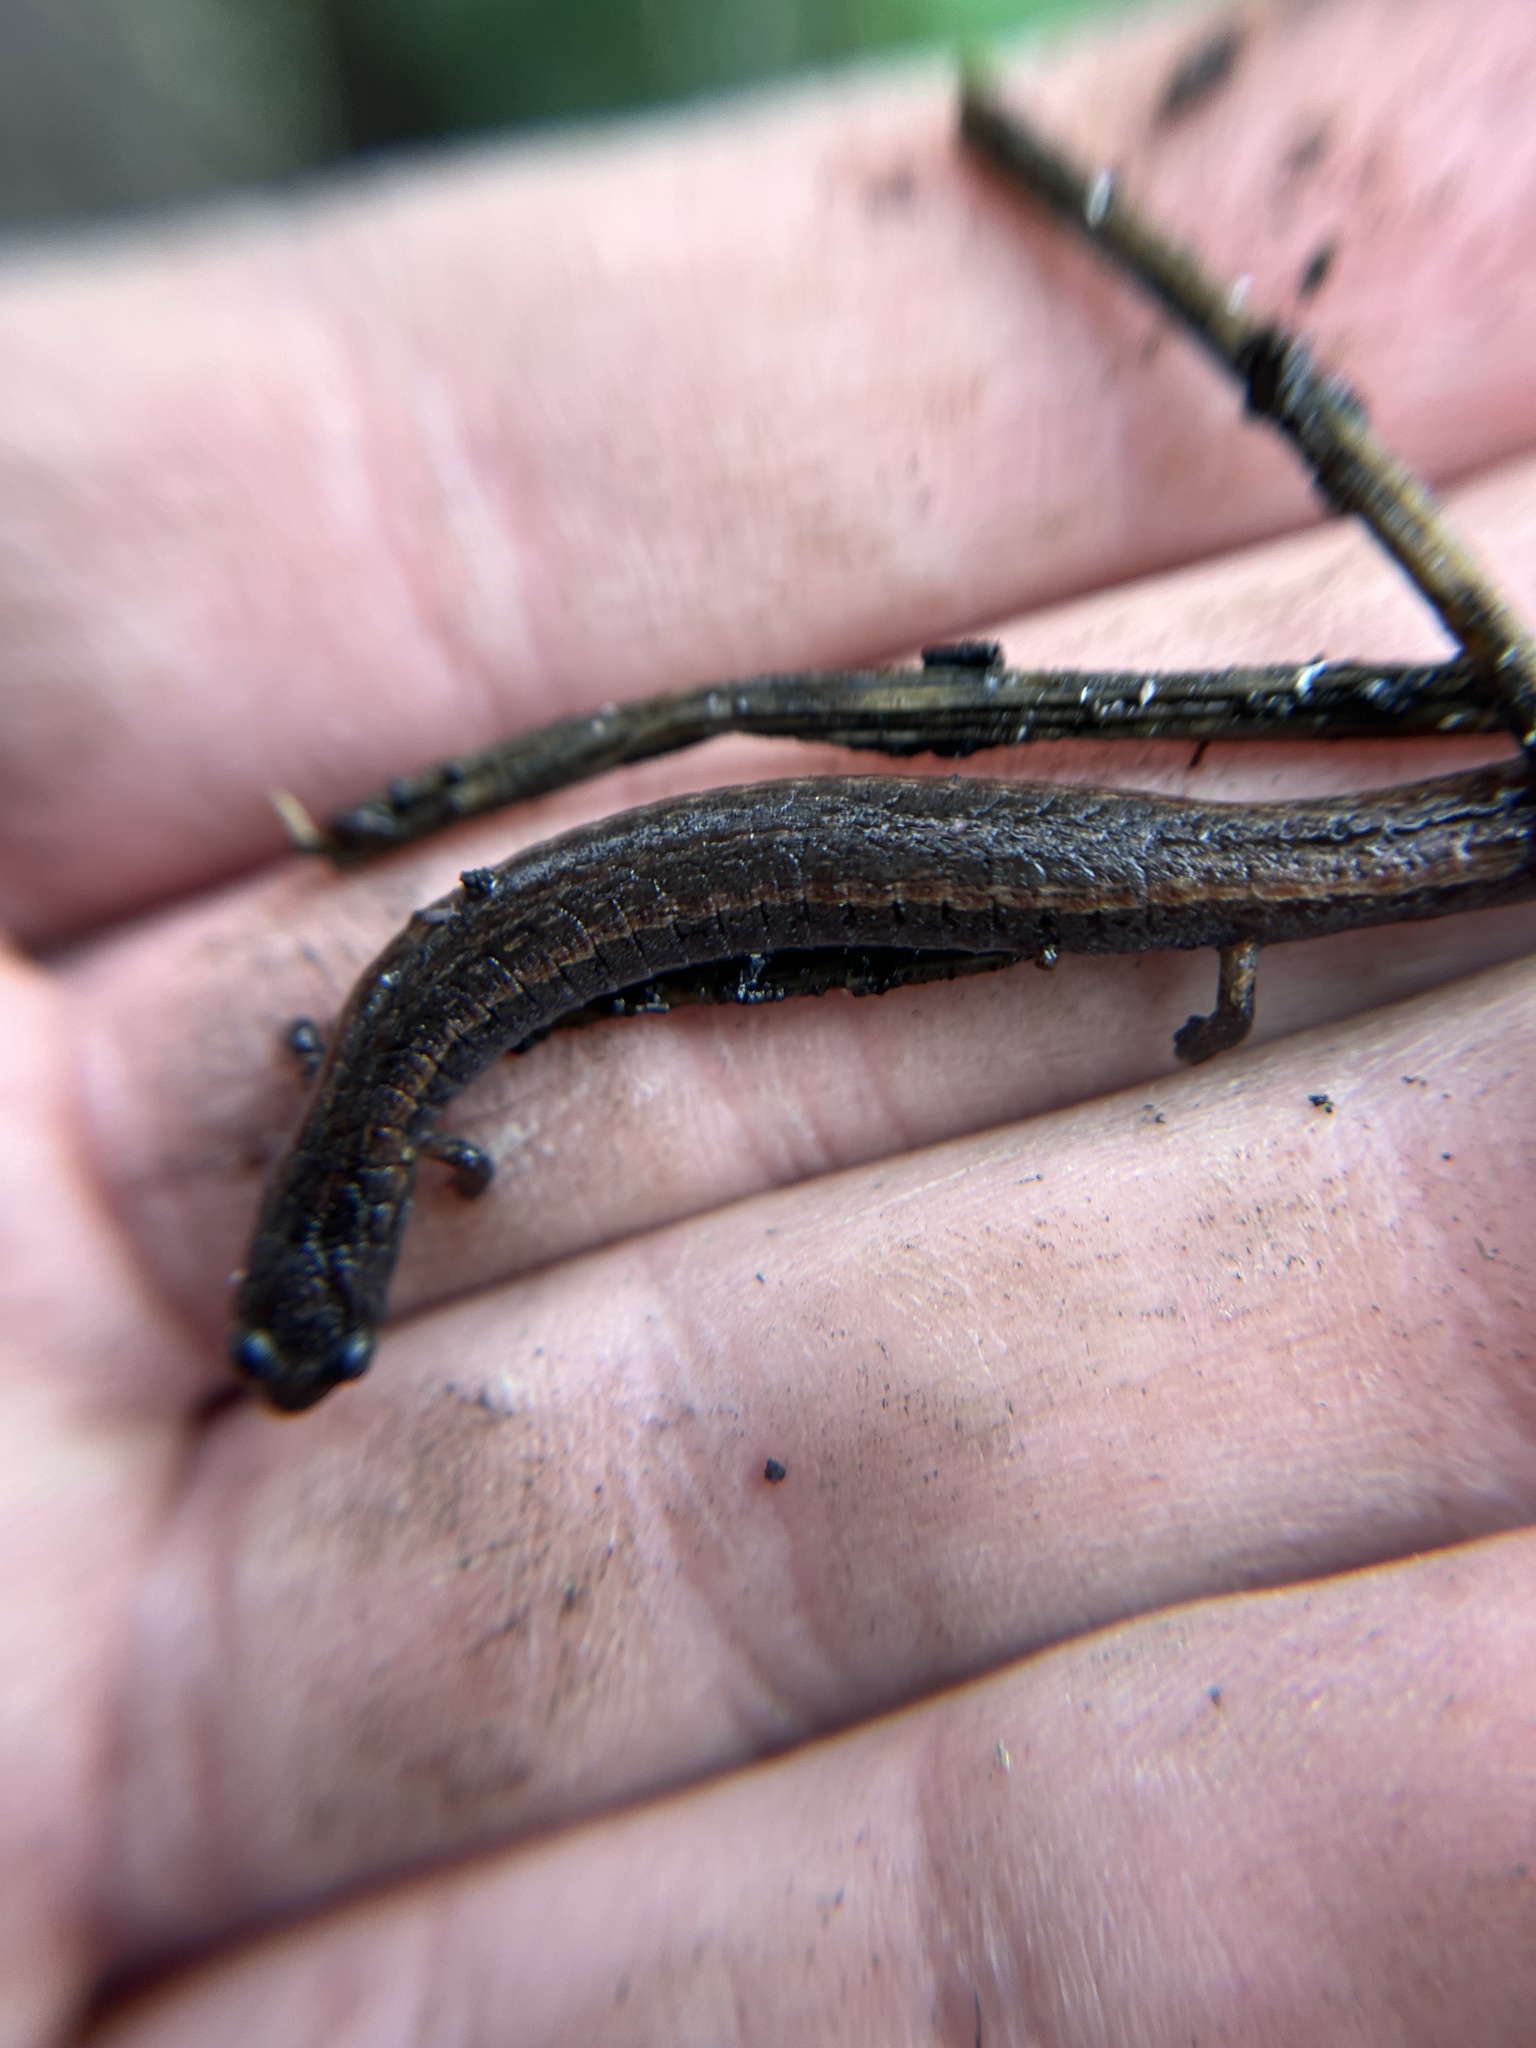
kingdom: Animalia
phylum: Chordata
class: Amphibia
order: Caudata
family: Plethodontidae
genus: Batrachoseps
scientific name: Batrachoseps attenuatus
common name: California slender salamander
